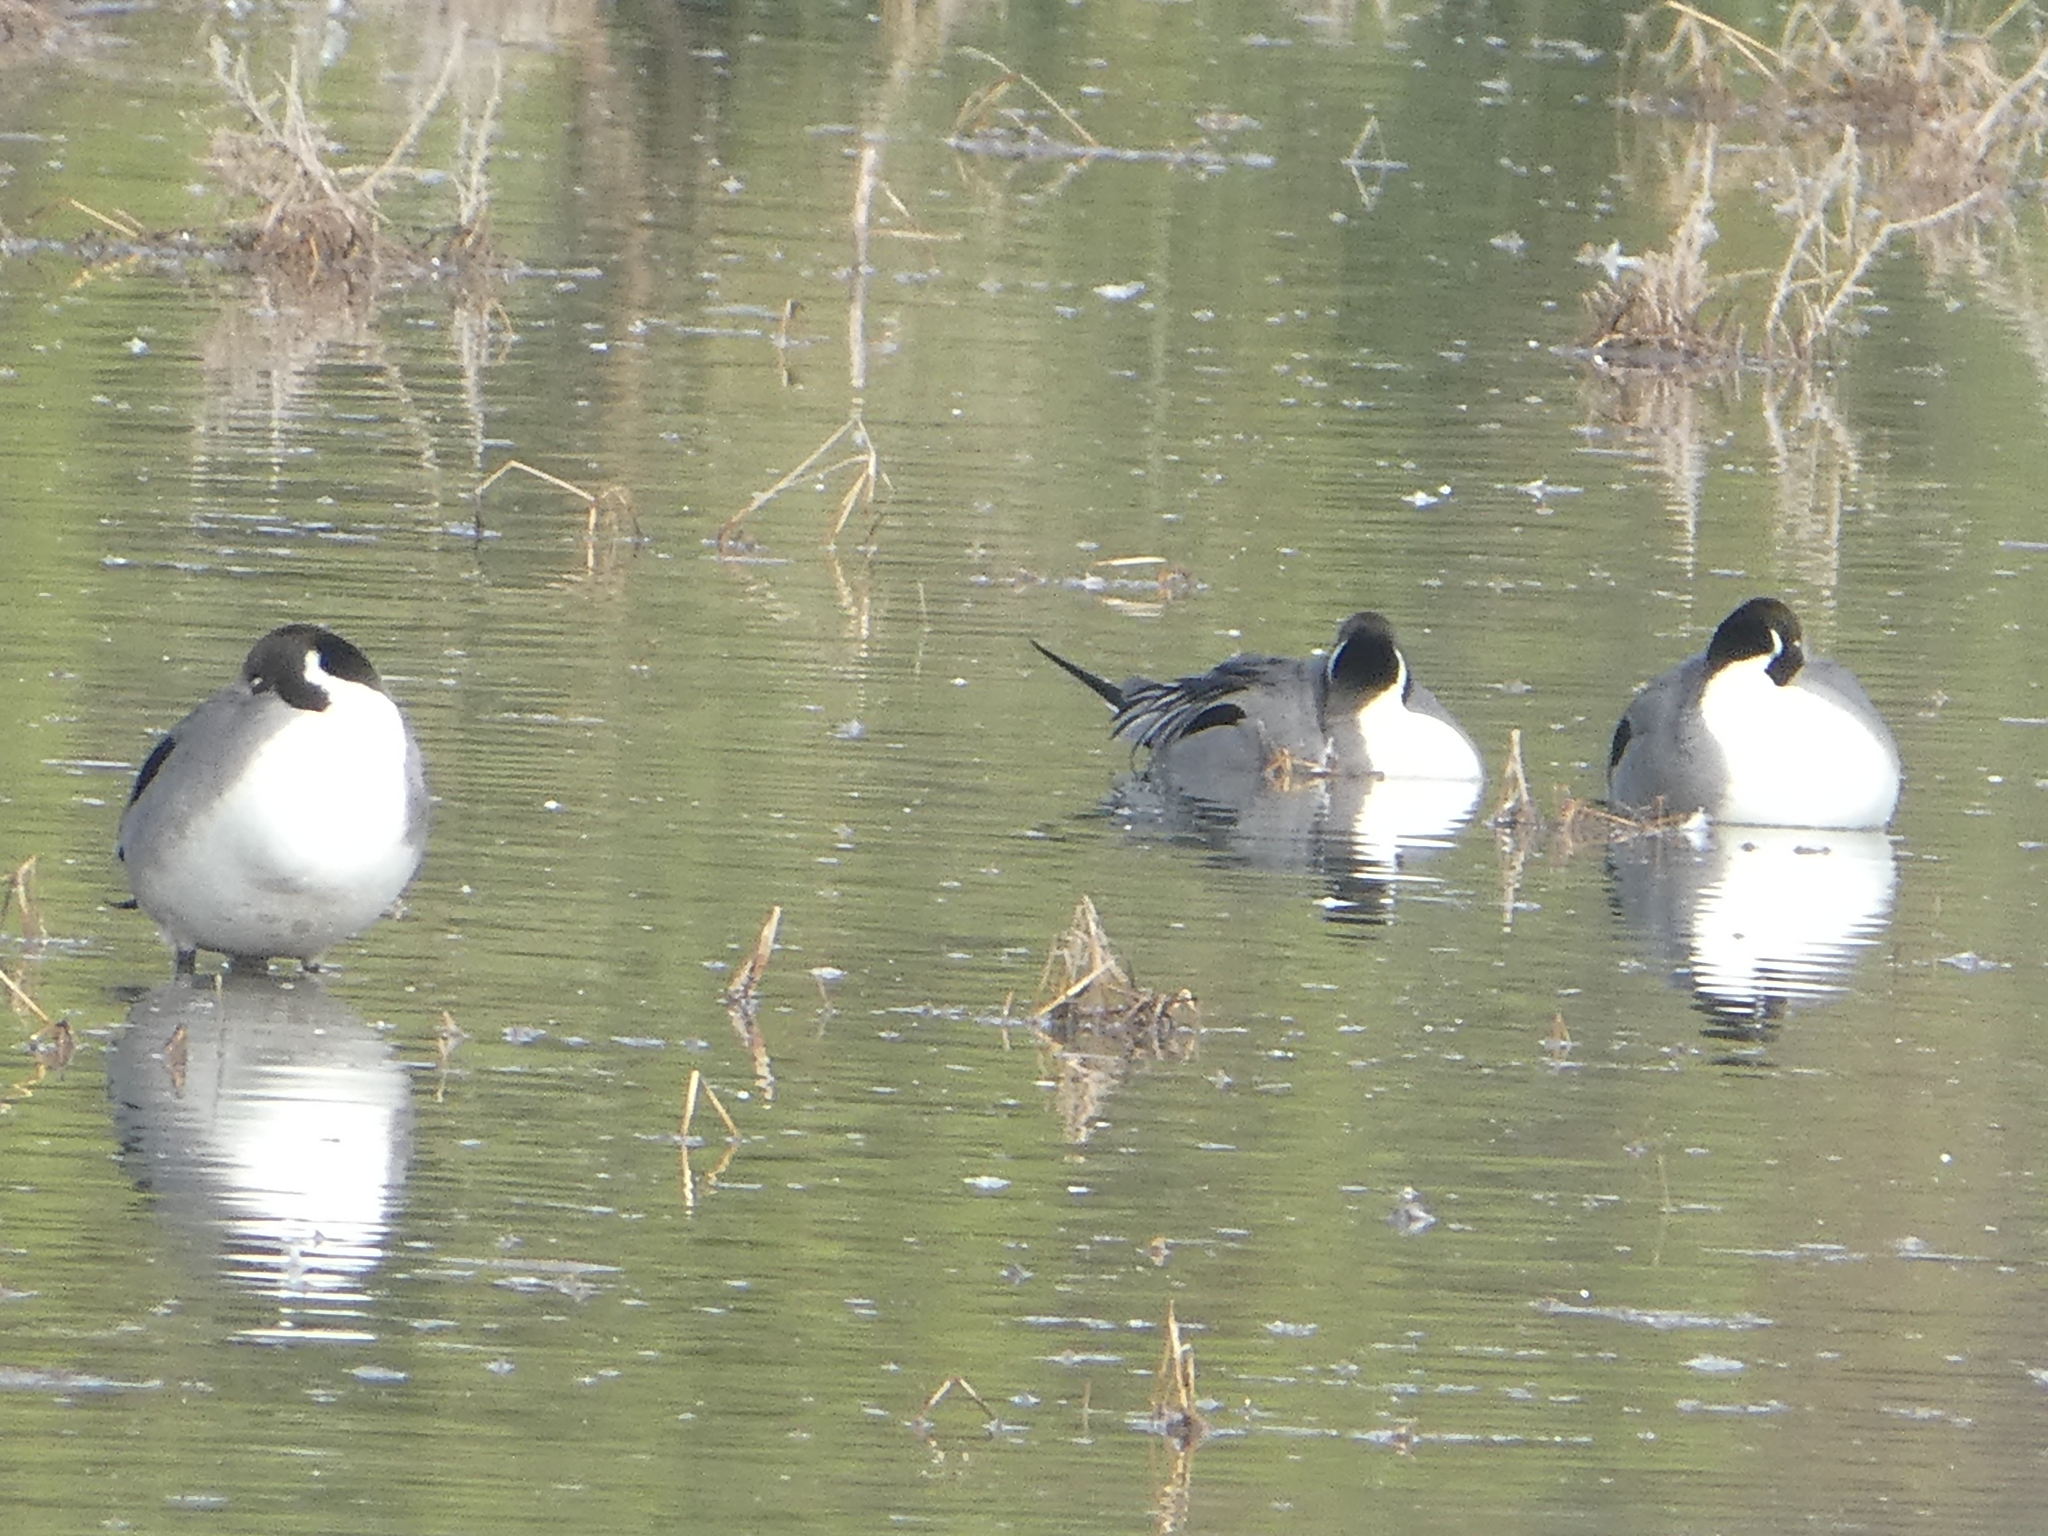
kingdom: Animalia
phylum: Chordata
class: Aves
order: Anseriformes
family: Anatidae
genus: Anas
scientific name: Anas acuta
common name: Northern pintail
